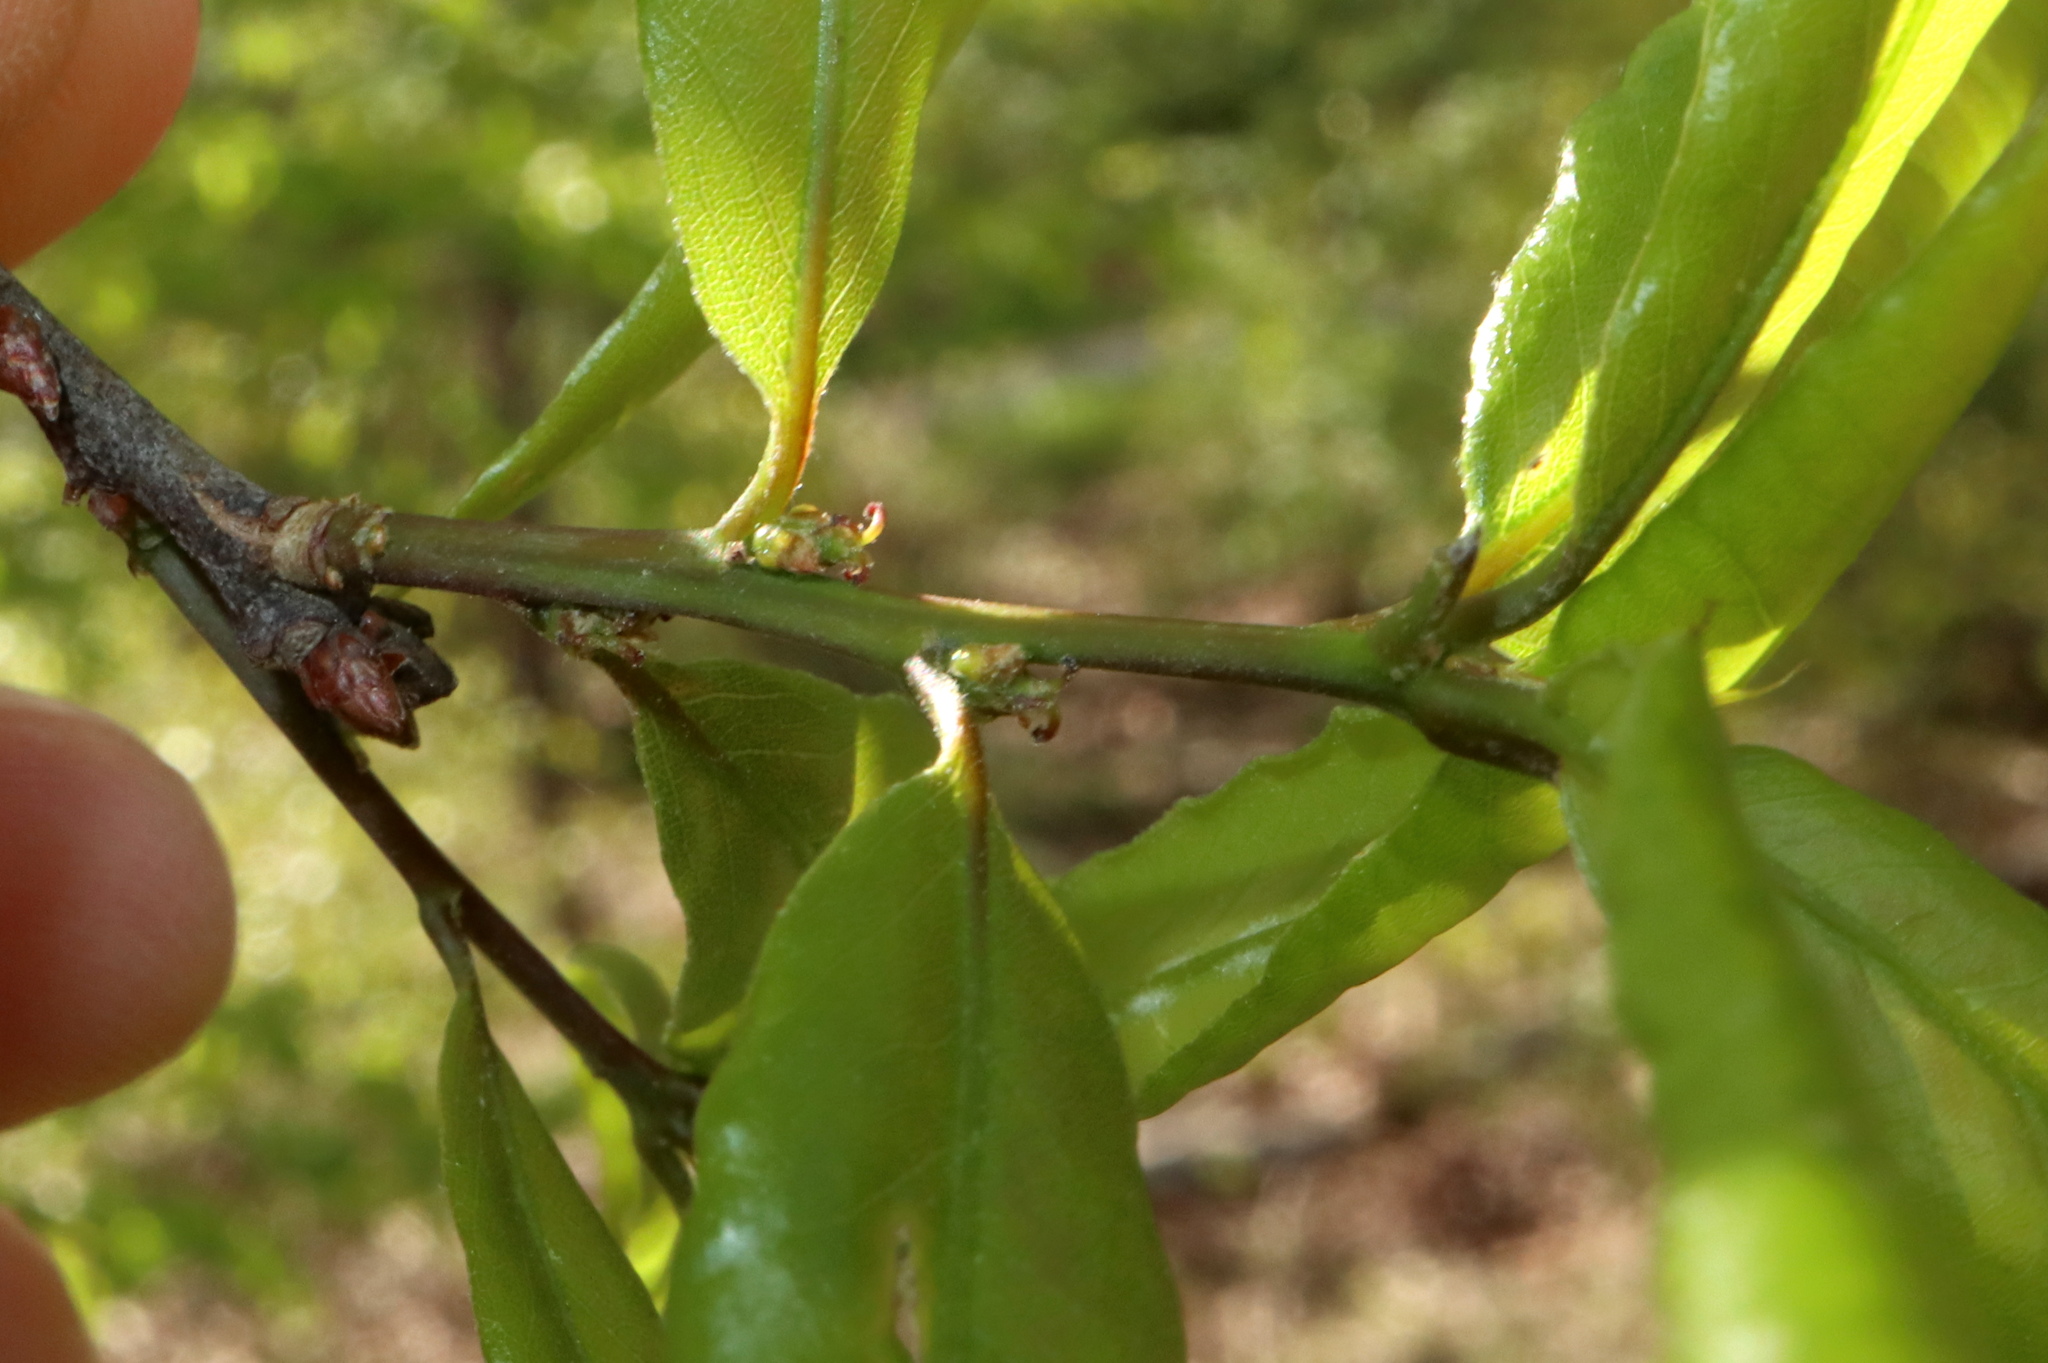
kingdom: Plantae
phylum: Tracheophyta
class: Magnoliopsida
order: Fagales
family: Fagaceae
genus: Quercus
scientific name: Quercus phellos
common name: Willow oak
